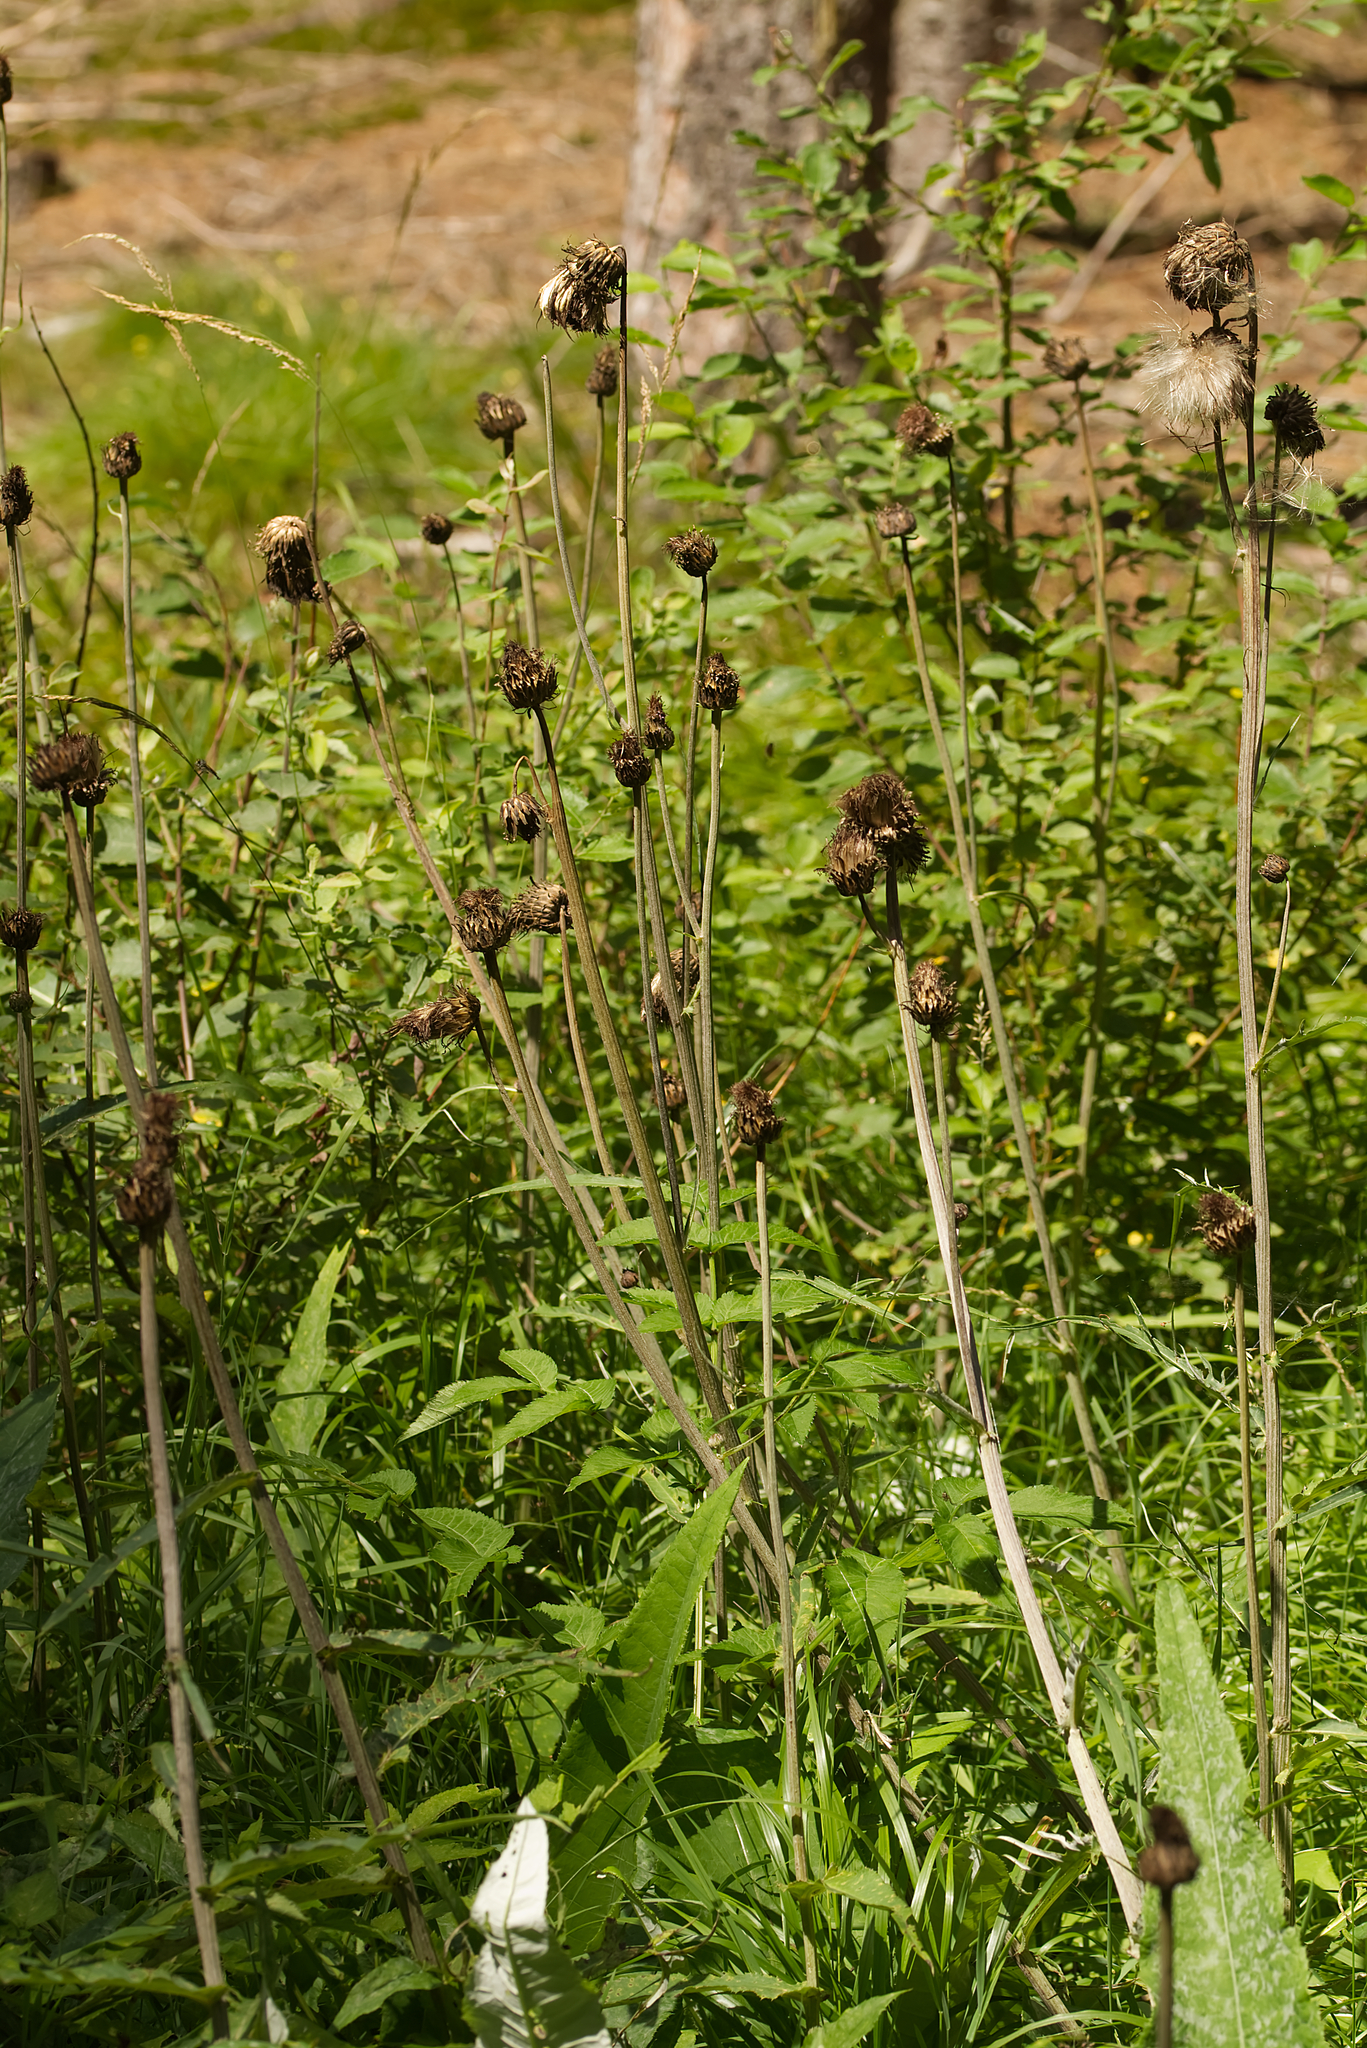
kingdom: Plantae
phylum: Tracheophyta
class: Magnoliopsida
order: Asterales
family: Asteraceae
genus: Cirsium
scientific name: Cirsium heterophyllum
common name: Melancholy thistle
